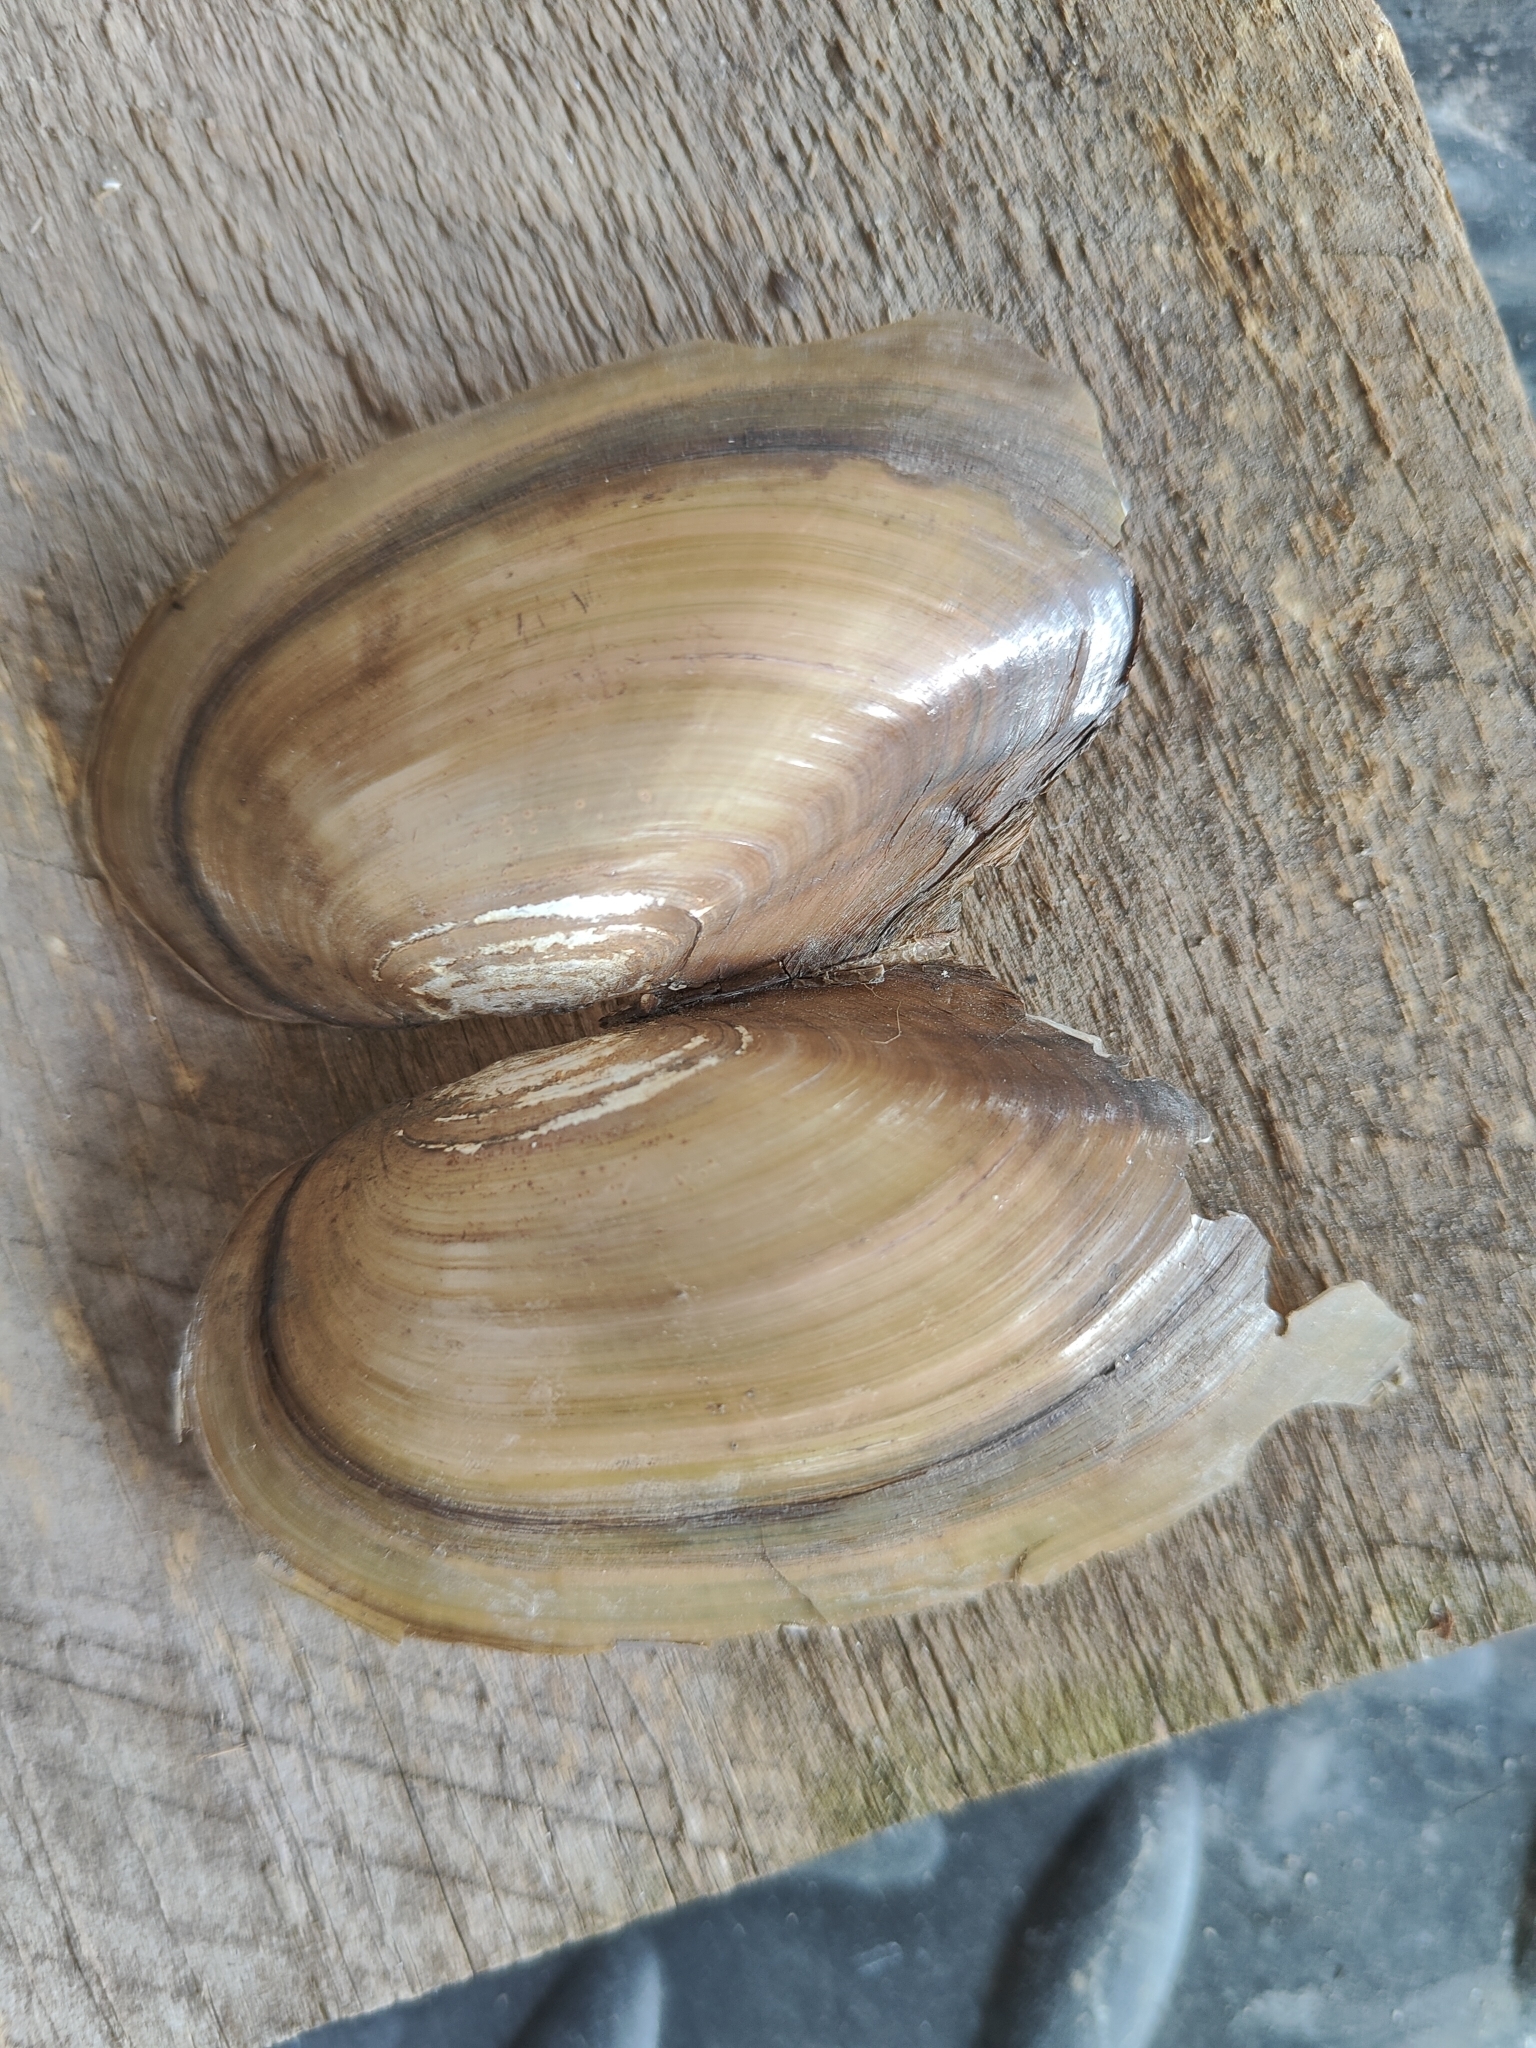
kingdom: Animalia
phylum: Mollusca
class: Bivalvia
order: Unionida
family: Unionidae
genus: Utterbackia
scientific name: Utterbackia imbecillis
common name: Paper pondshell
